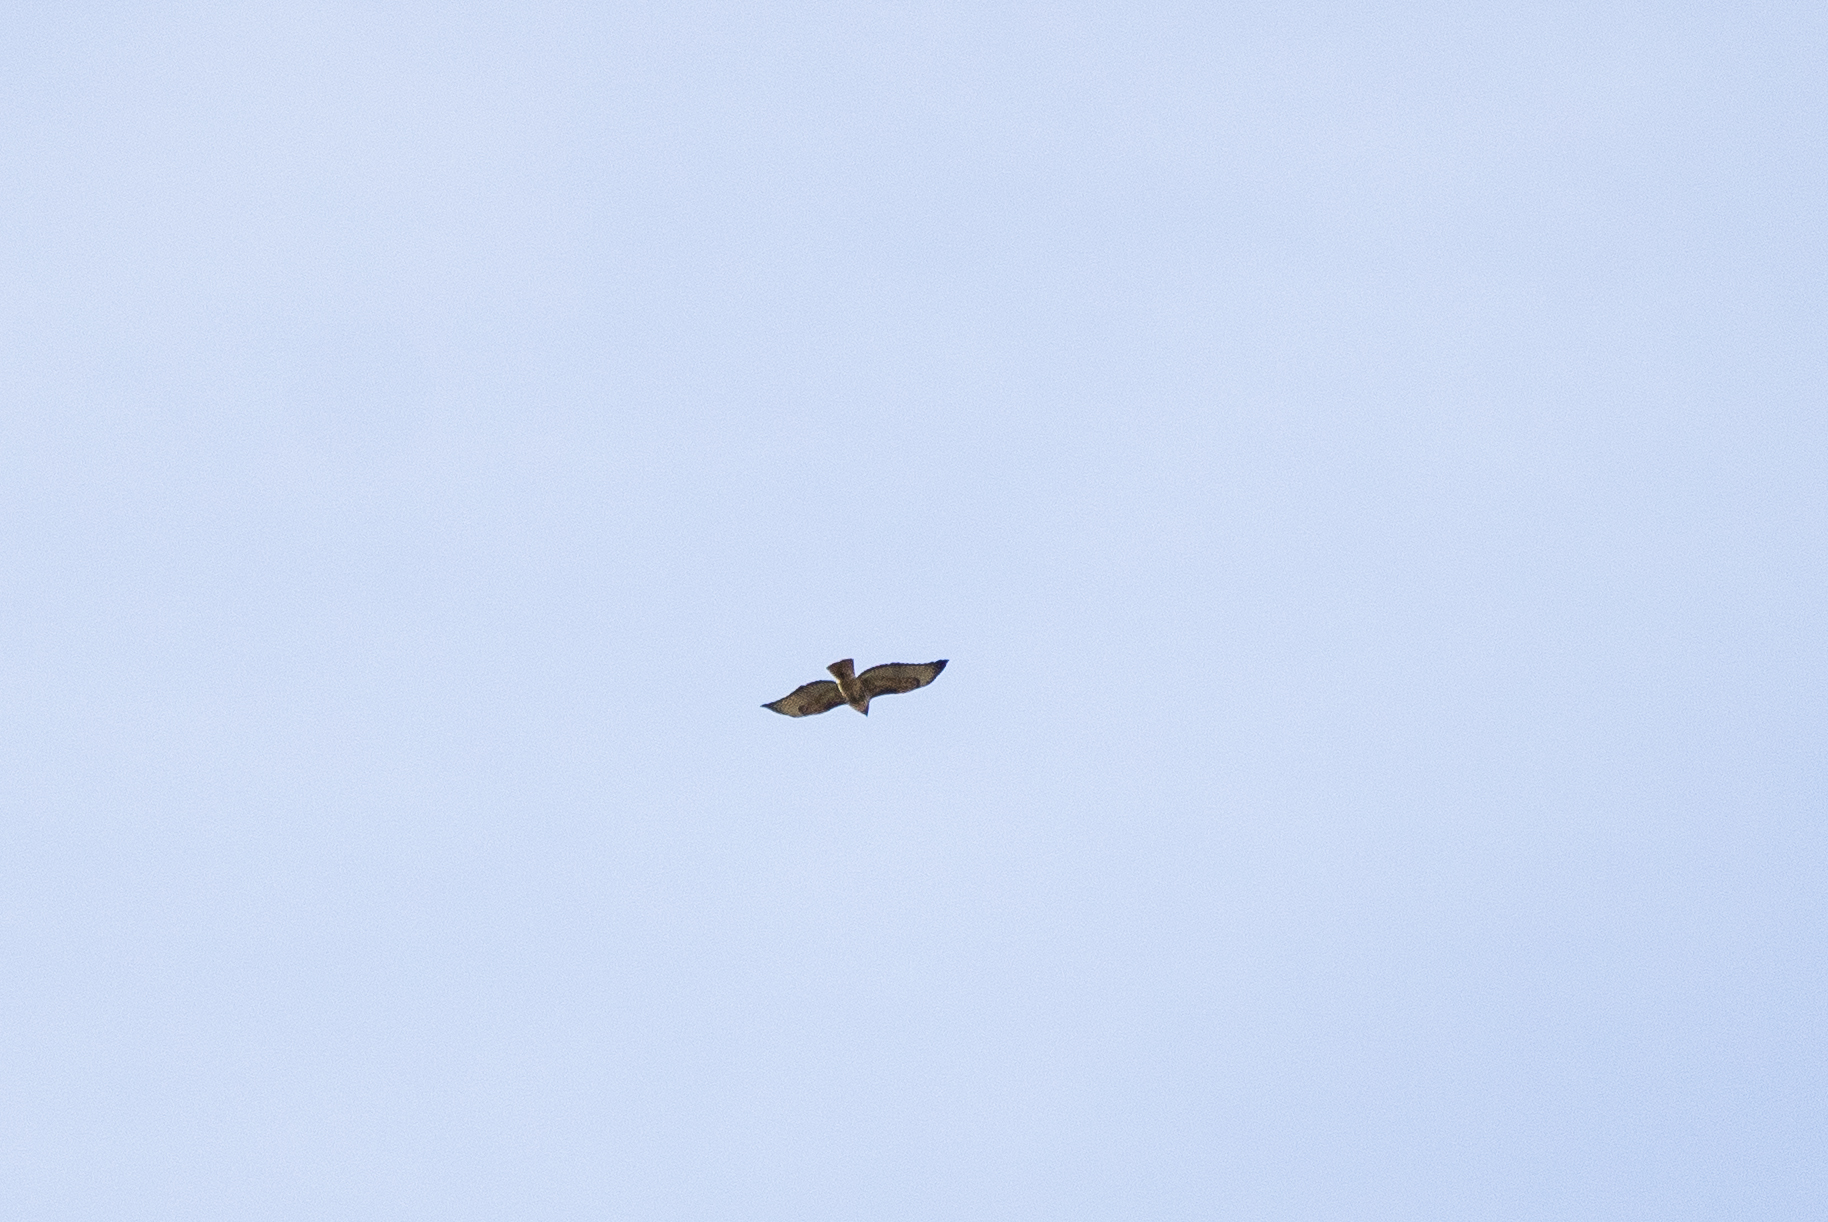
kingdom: Animalia
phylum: Chordata
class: Aves
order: Accipitriformes
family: Accipitridae
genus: Buteo
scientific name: Buteo jamaicensis
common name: Red-tailed hawk
